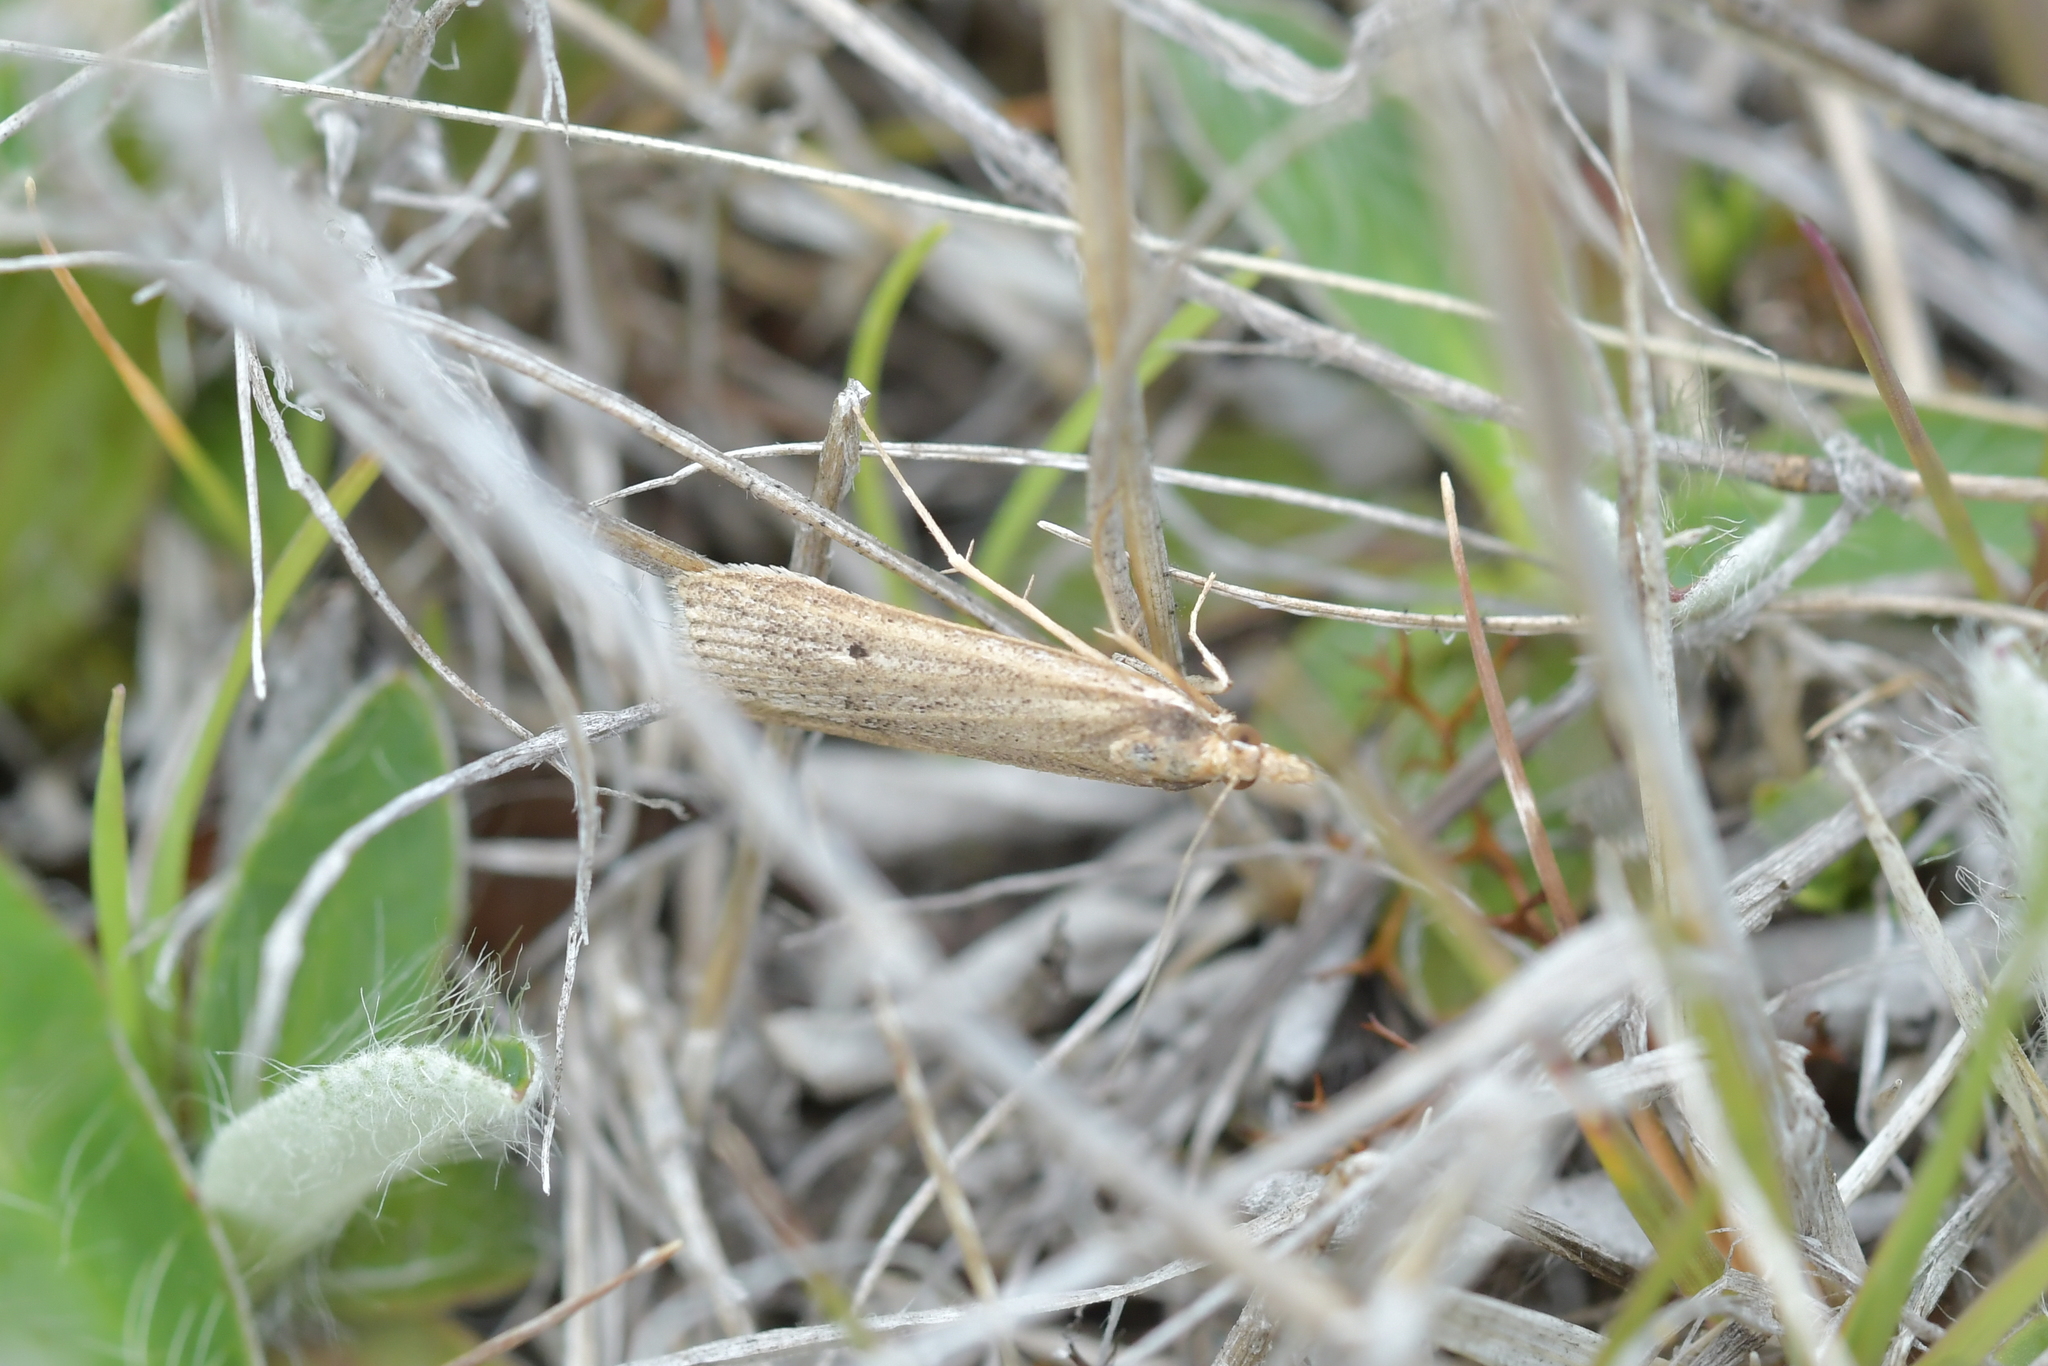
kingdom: Animalia
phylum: Arthropoda
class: Insecta
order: Lepidoptera
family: Crambidae
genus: Eudonia
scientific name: Eudonia sabulosella
